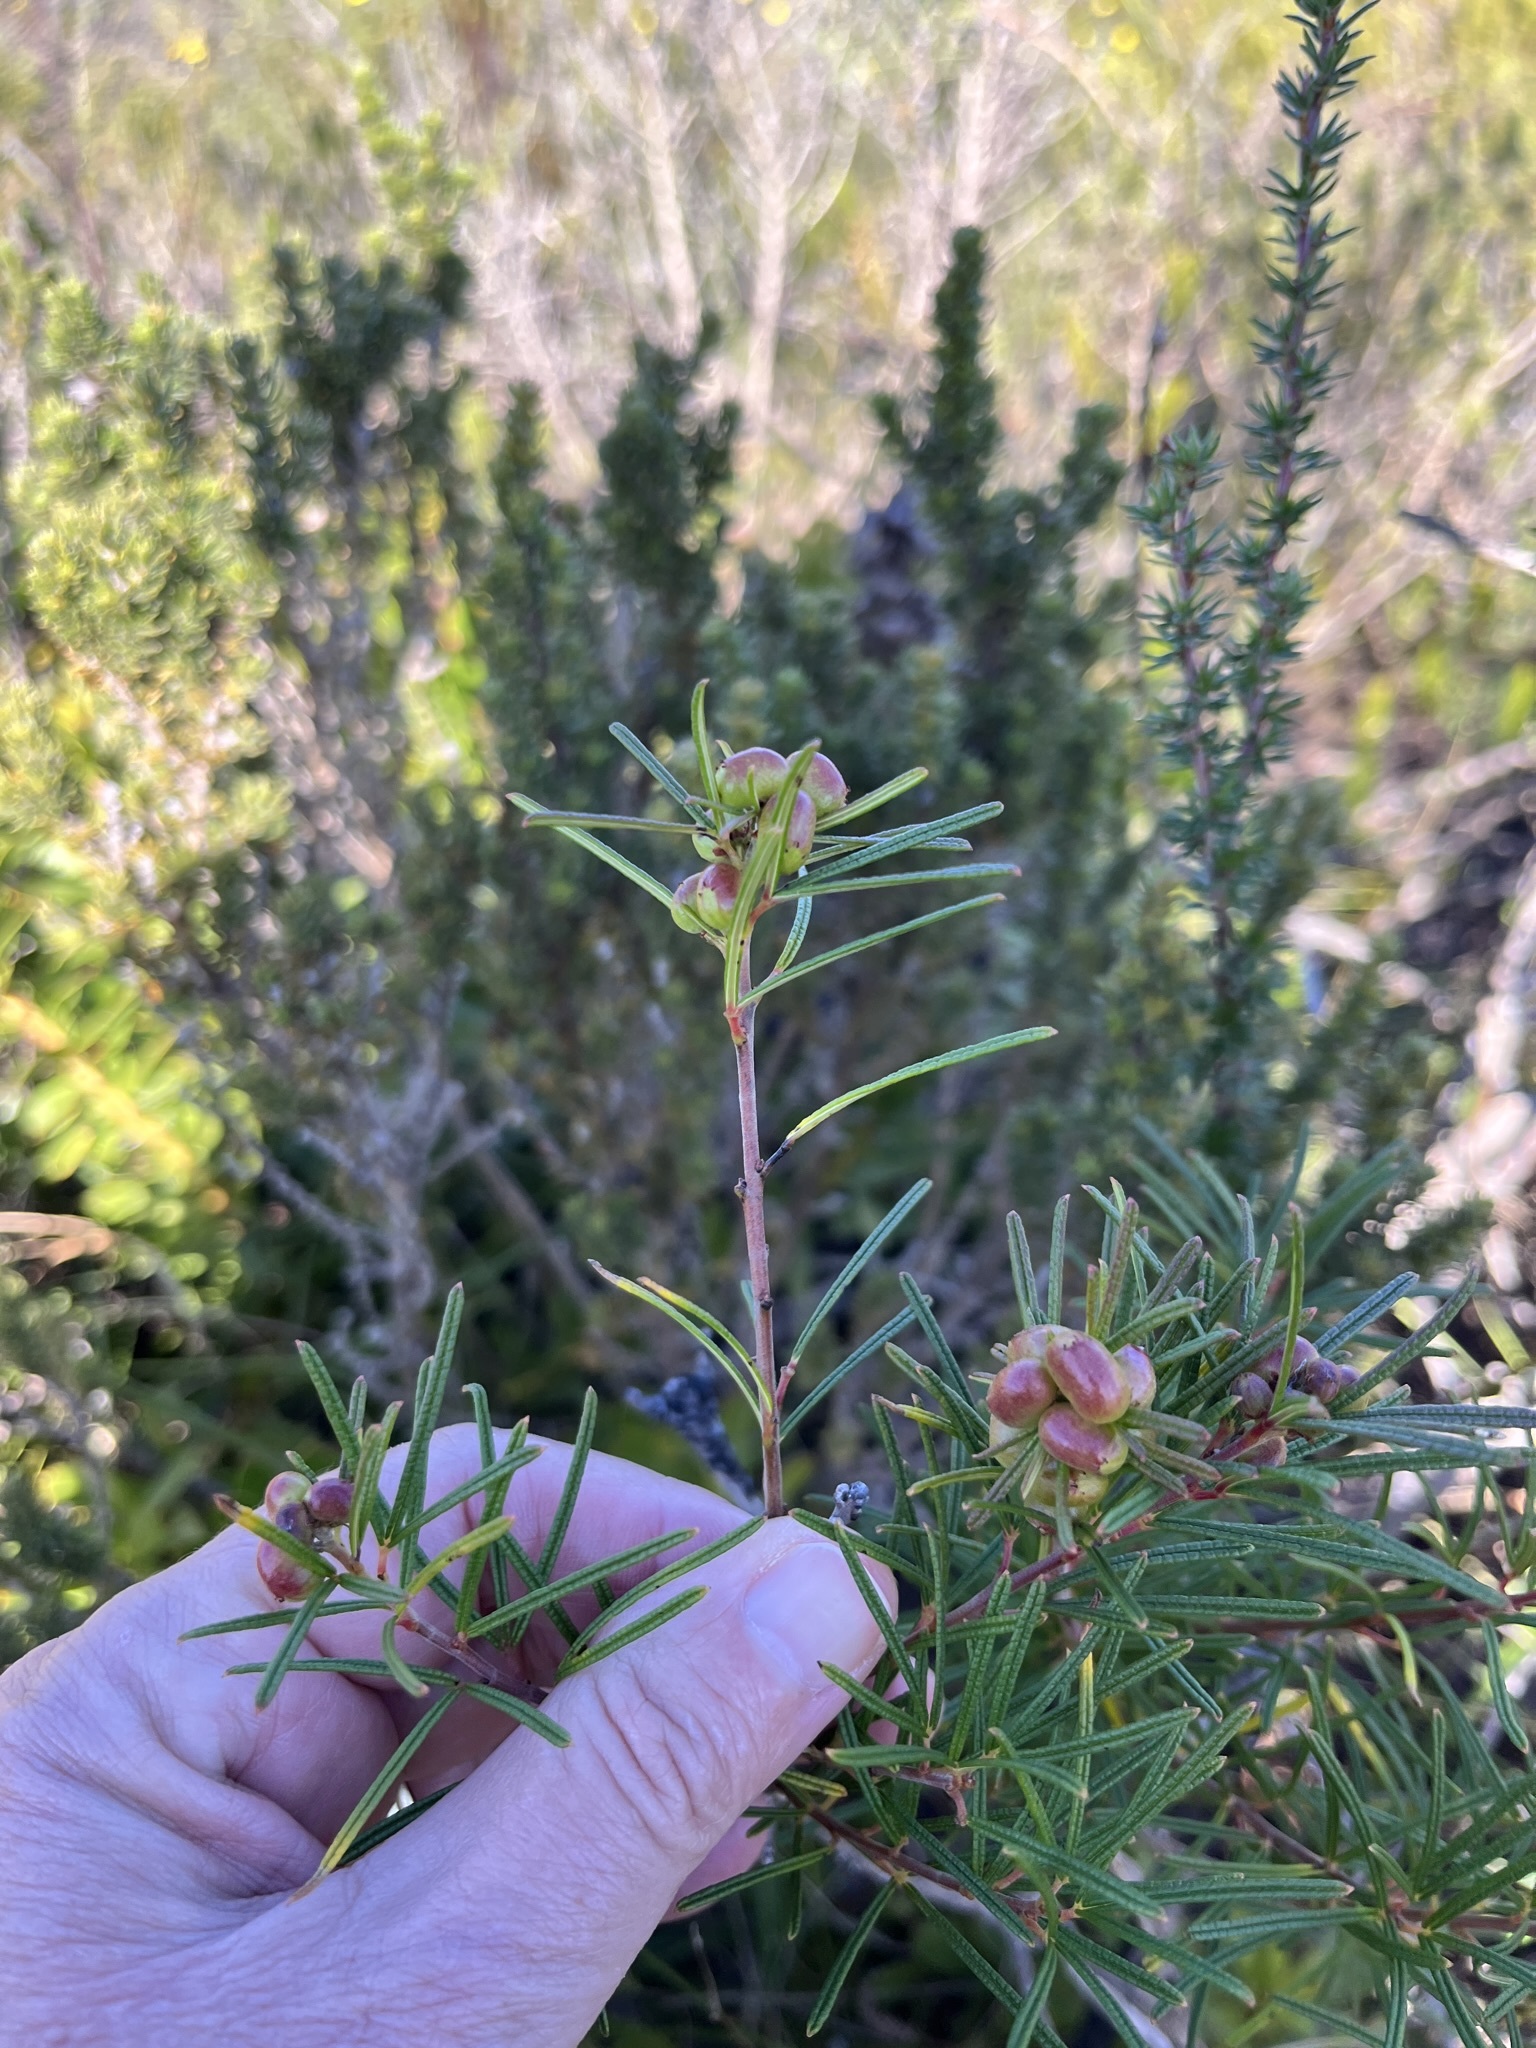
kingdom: Plantae
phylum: Tracheophyta
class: Magnoliopsida
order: Sapindales
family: Anacardiaceae
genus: Searsia
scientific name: Searsia rosmarinifolia
